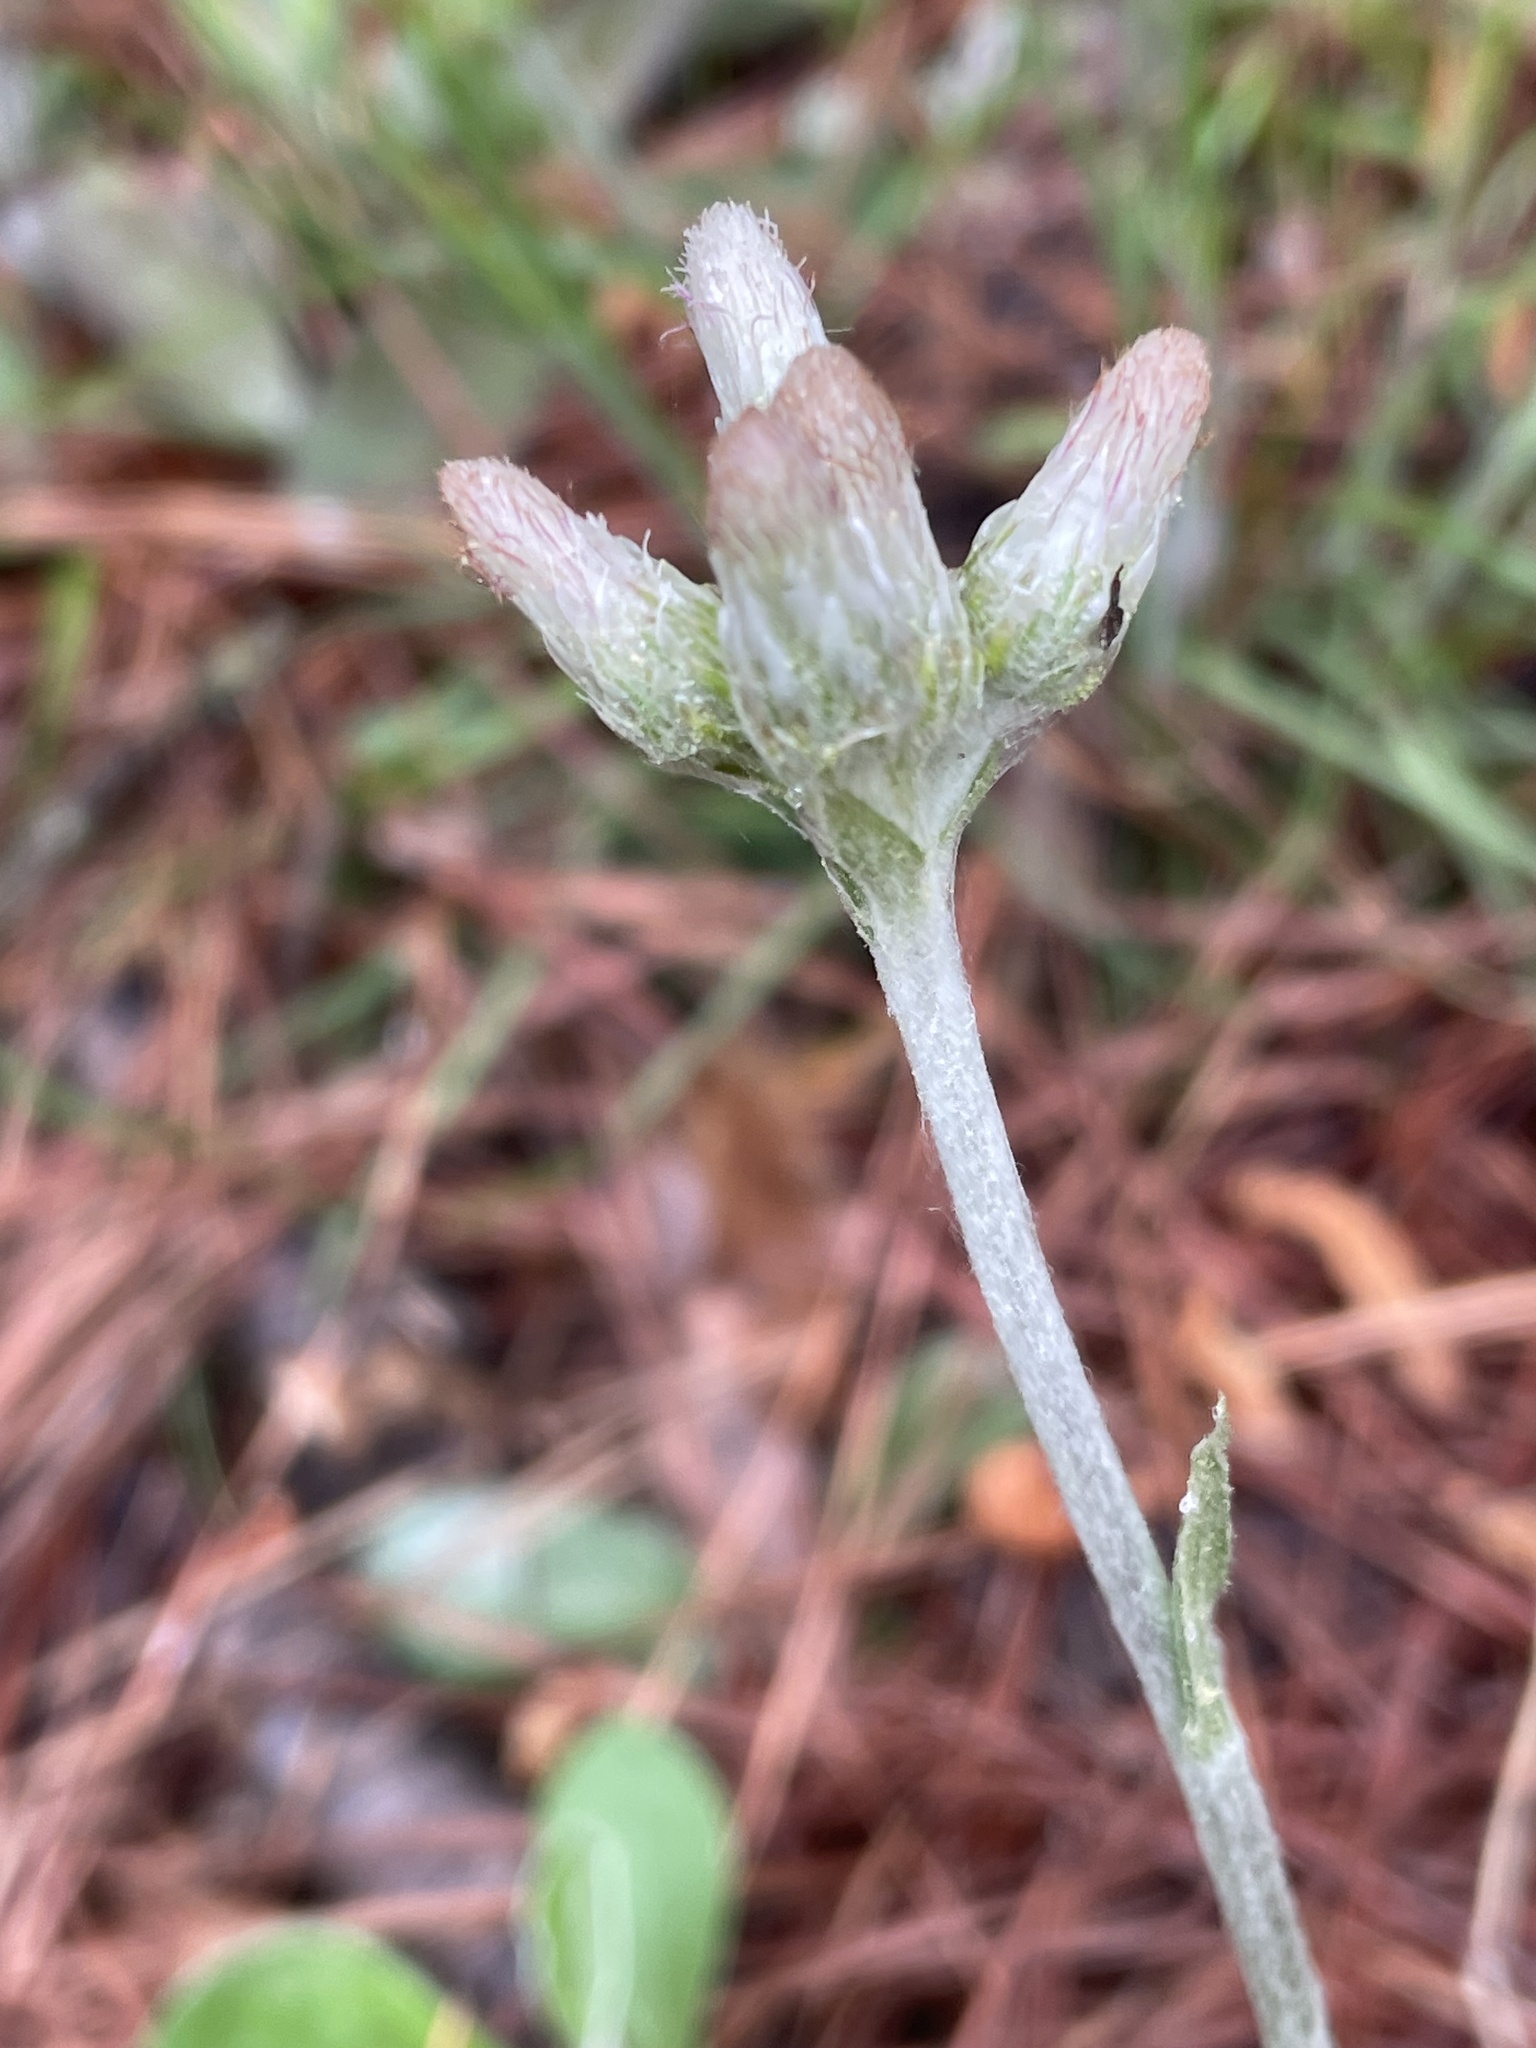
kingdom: Plantae
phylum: Tracheophyta
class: Magnoliopsida
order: Asterales
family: Asteraceae
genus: Antennaria
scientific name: Antennaria parlinii
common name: Parlin's pussytoes
